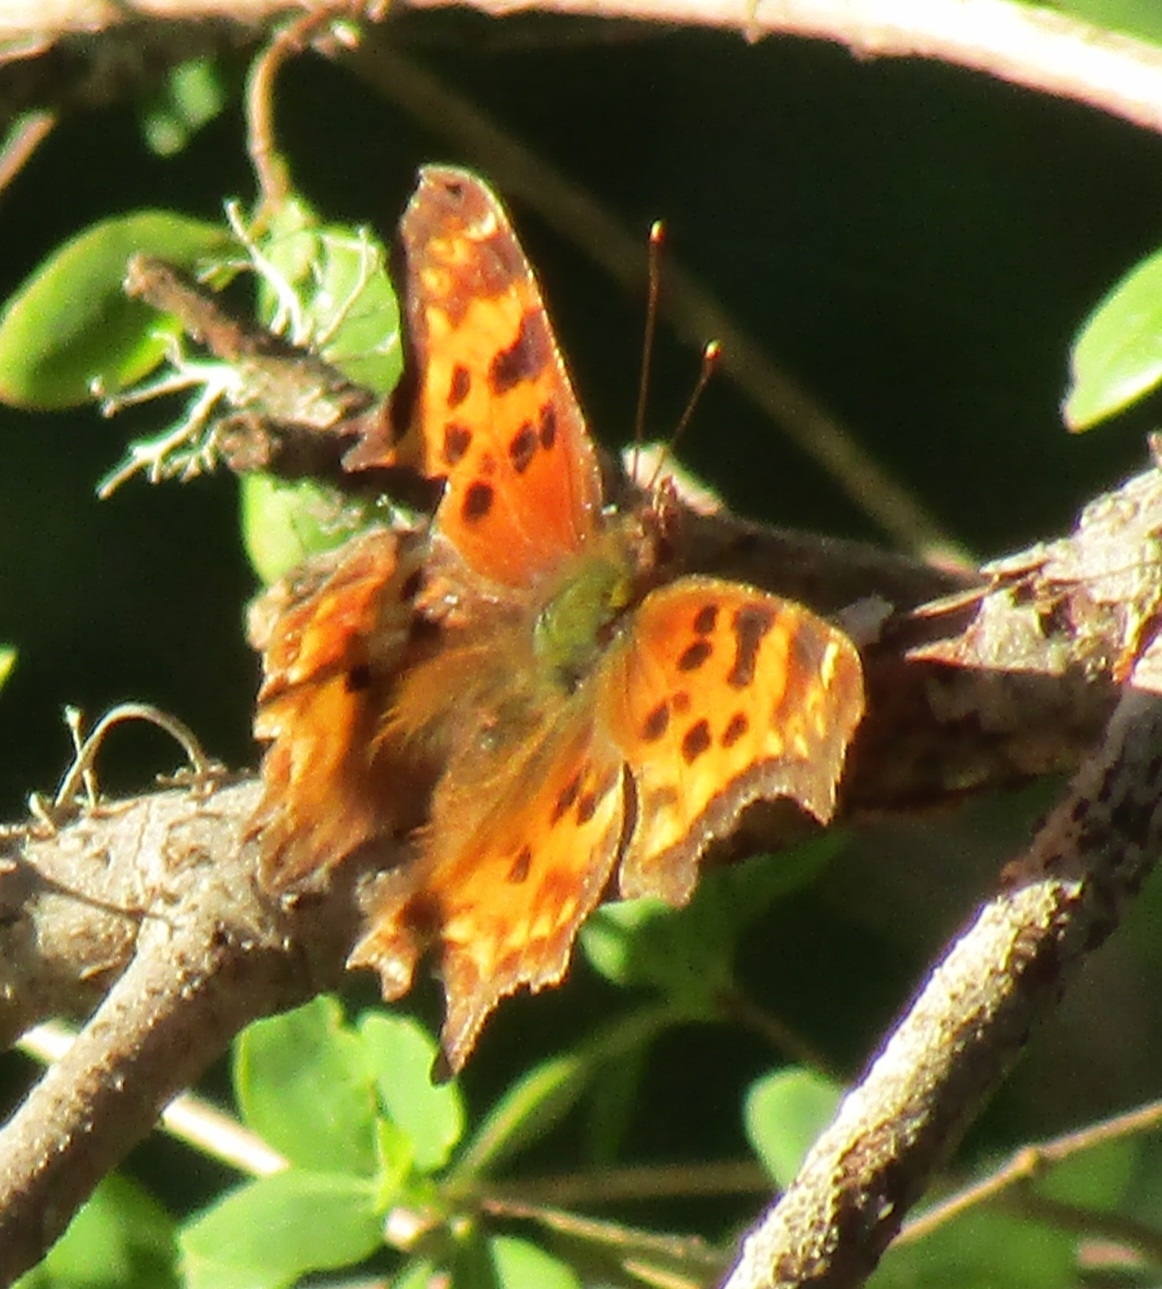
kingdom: Animalia
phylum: Arthropoda
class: Insecta
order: Lepidoptera
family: Nymphalidae
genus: Polygonia
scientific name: Polygonia satyrus
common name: Satyr angle wing
